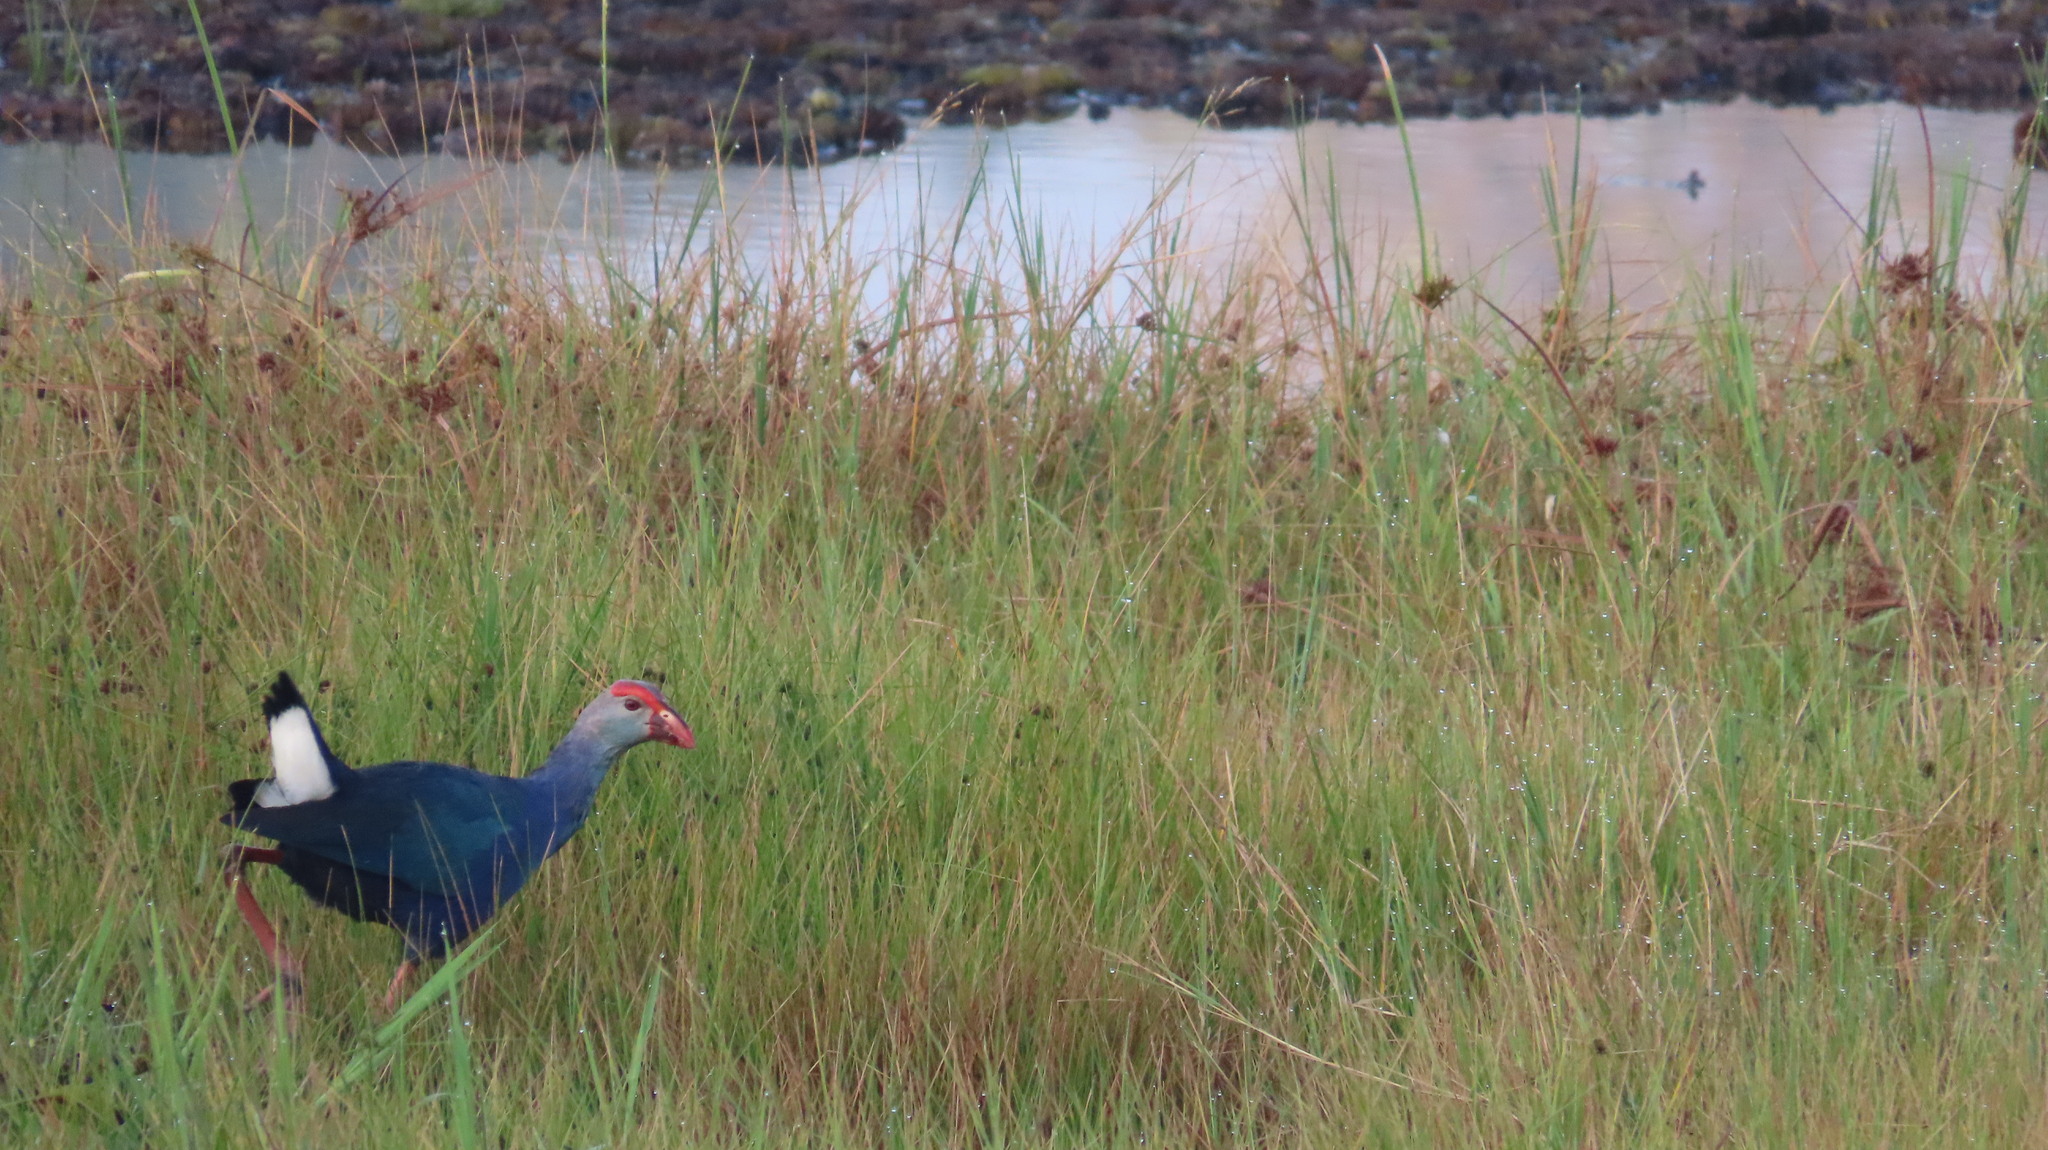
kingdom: Animalia
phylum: Chordata
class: Aves
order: Gruiformes
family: Rallidae
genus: Porphyrio
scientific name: Porphyrio porphyrio
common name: Purple swamphen
